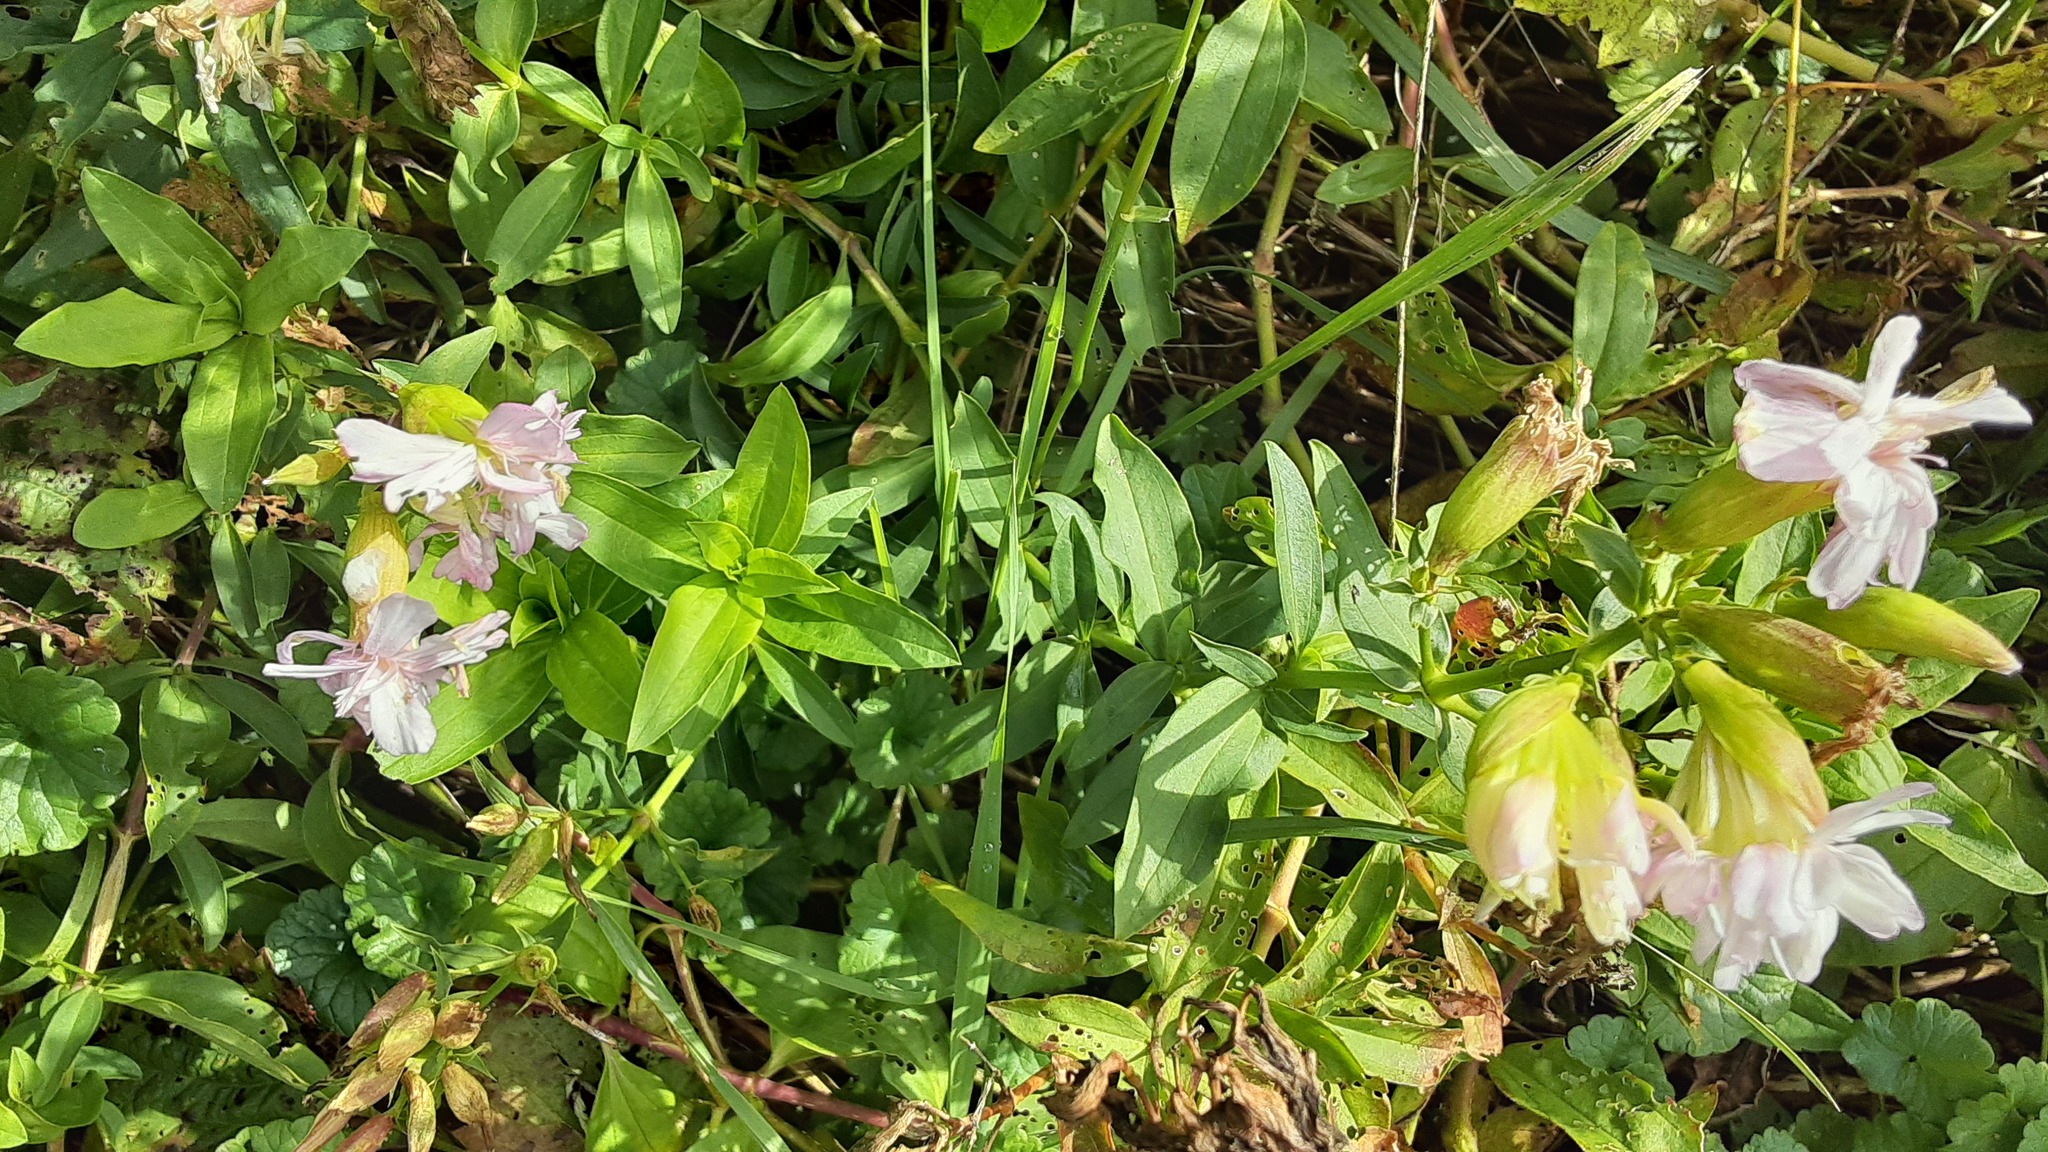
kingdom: Plantae
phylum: Tracheophyta
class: Magnoliopsida
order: Caryophyllales
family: Caryophyllaceae
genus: Saponaria
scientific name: Saponaria officinalis
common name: Soapwort
